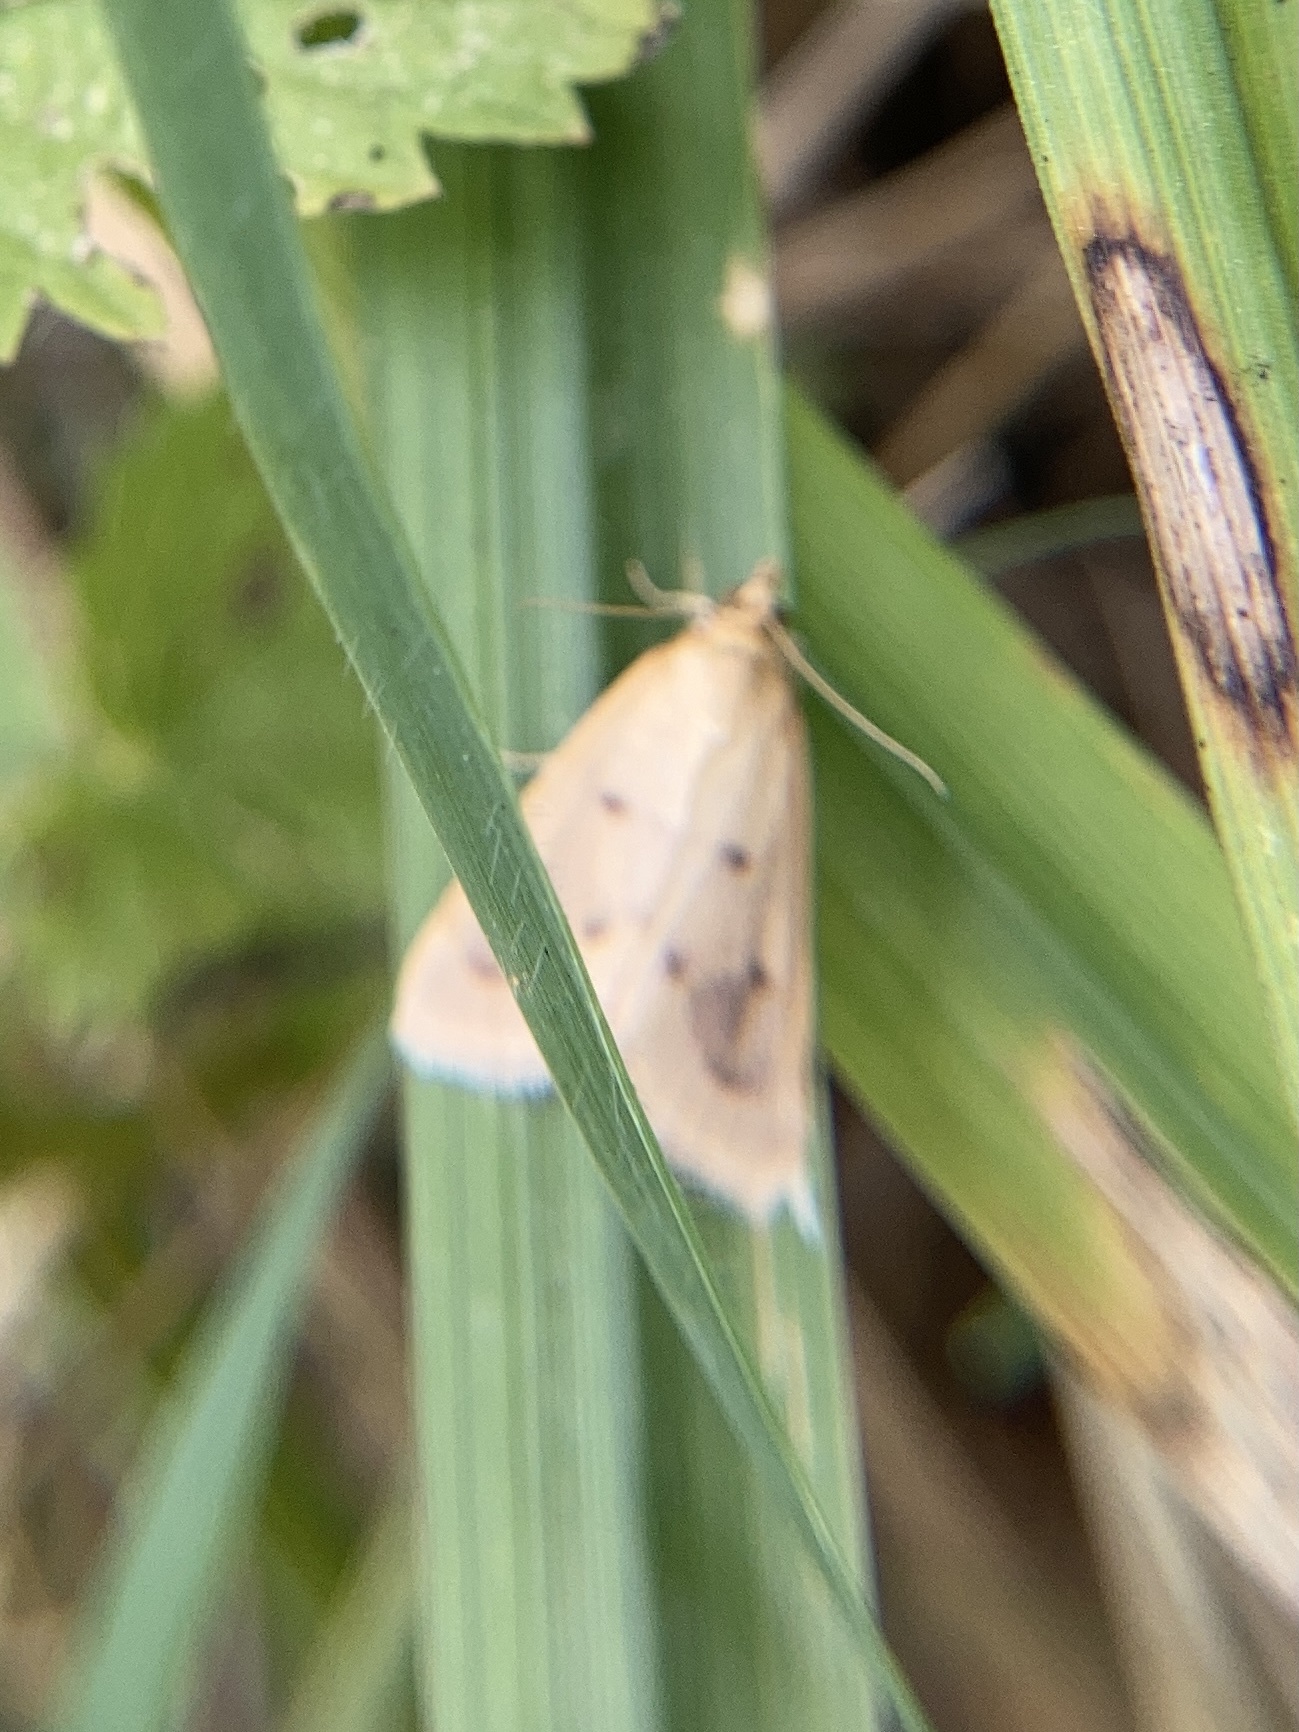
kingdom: Animalia
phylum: Arthropoda
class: Insecta
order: Lepidoptera
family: Crambidae
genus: Achyra
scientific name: Achyra nudalis
